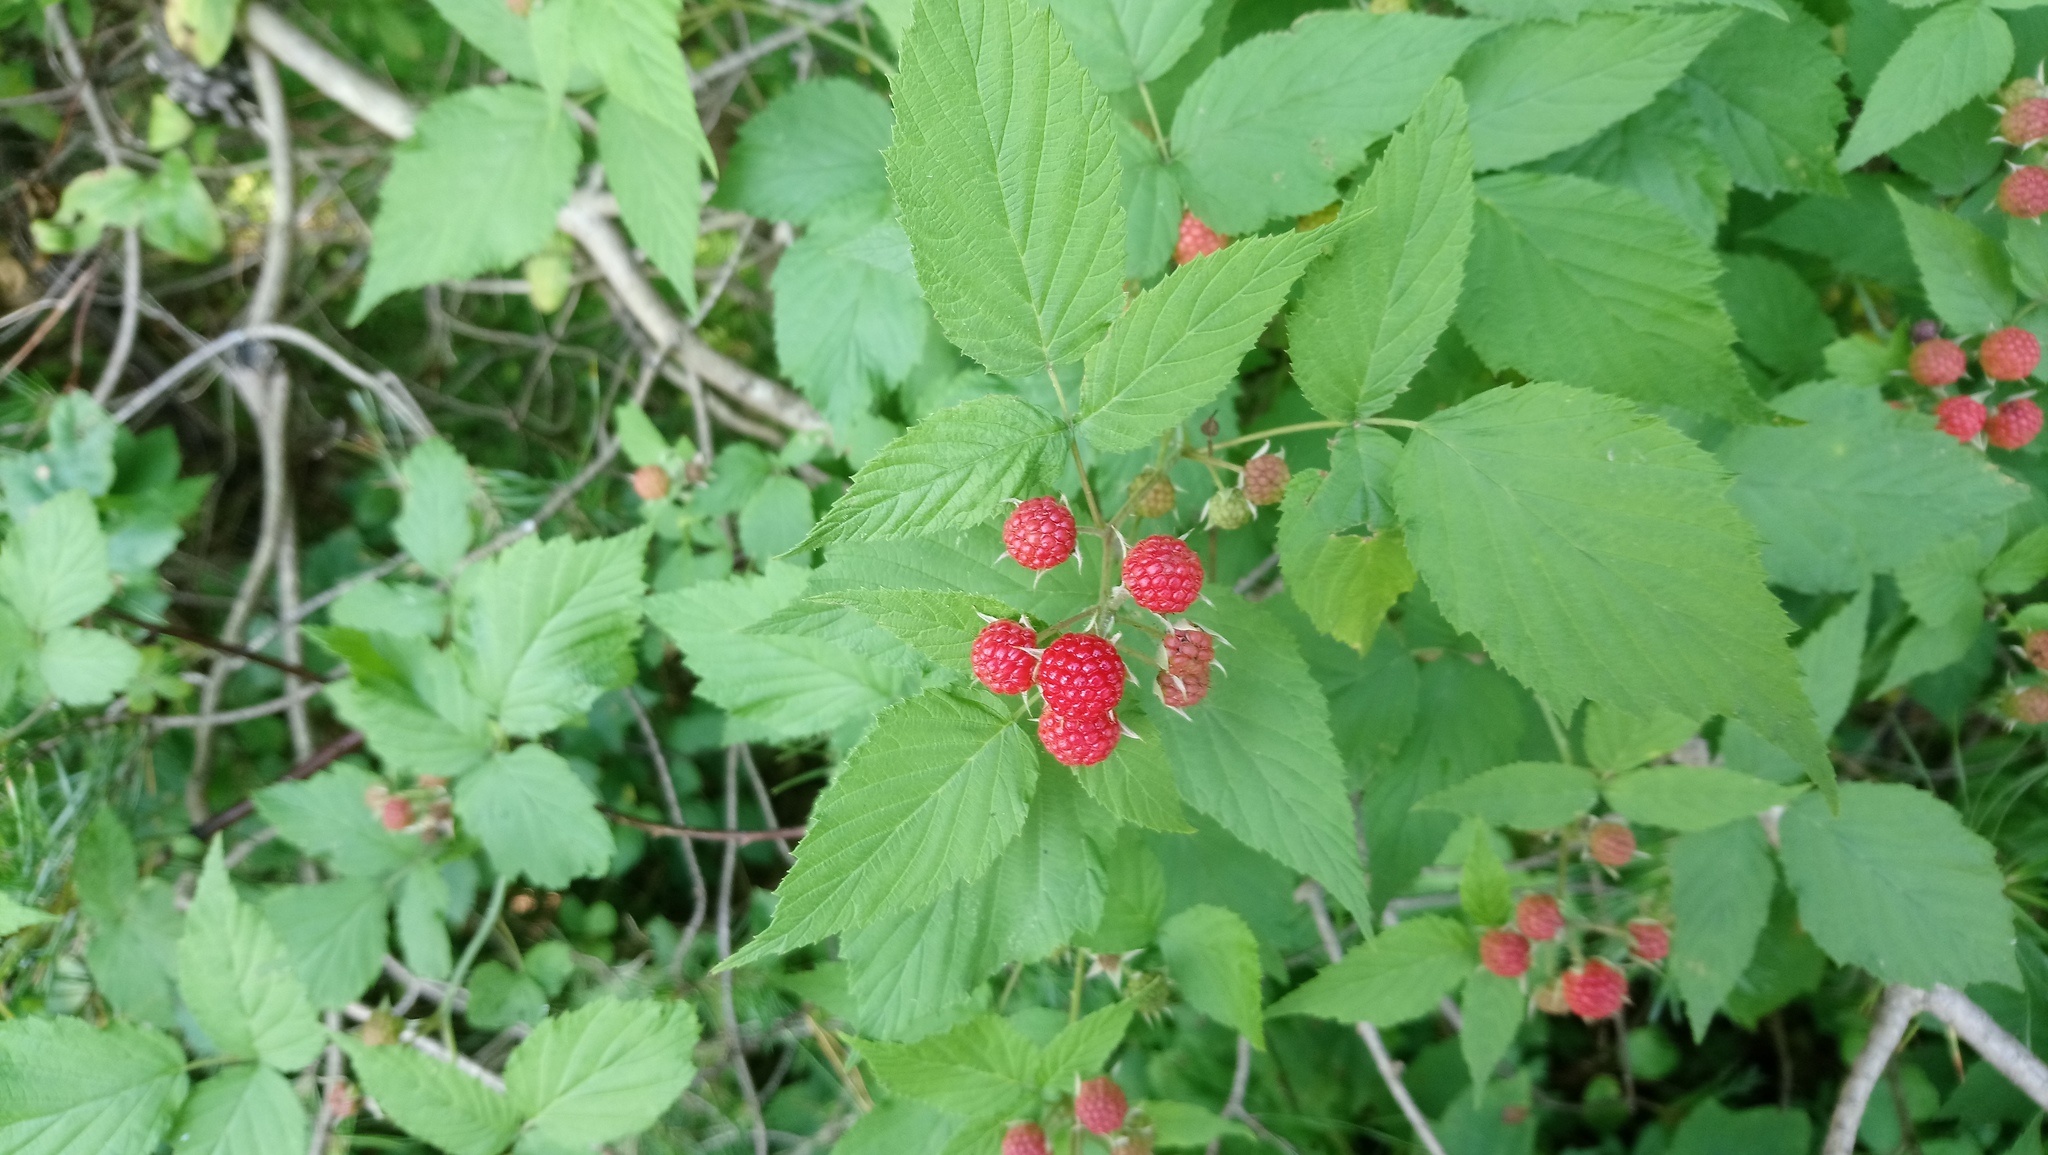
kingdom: Plantae
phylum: Tracheophyta
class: Magnoliopsida
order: Rosales
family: Rosaceae
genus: Rubus
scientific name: Rubus occidentalis
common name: Black raspberry
